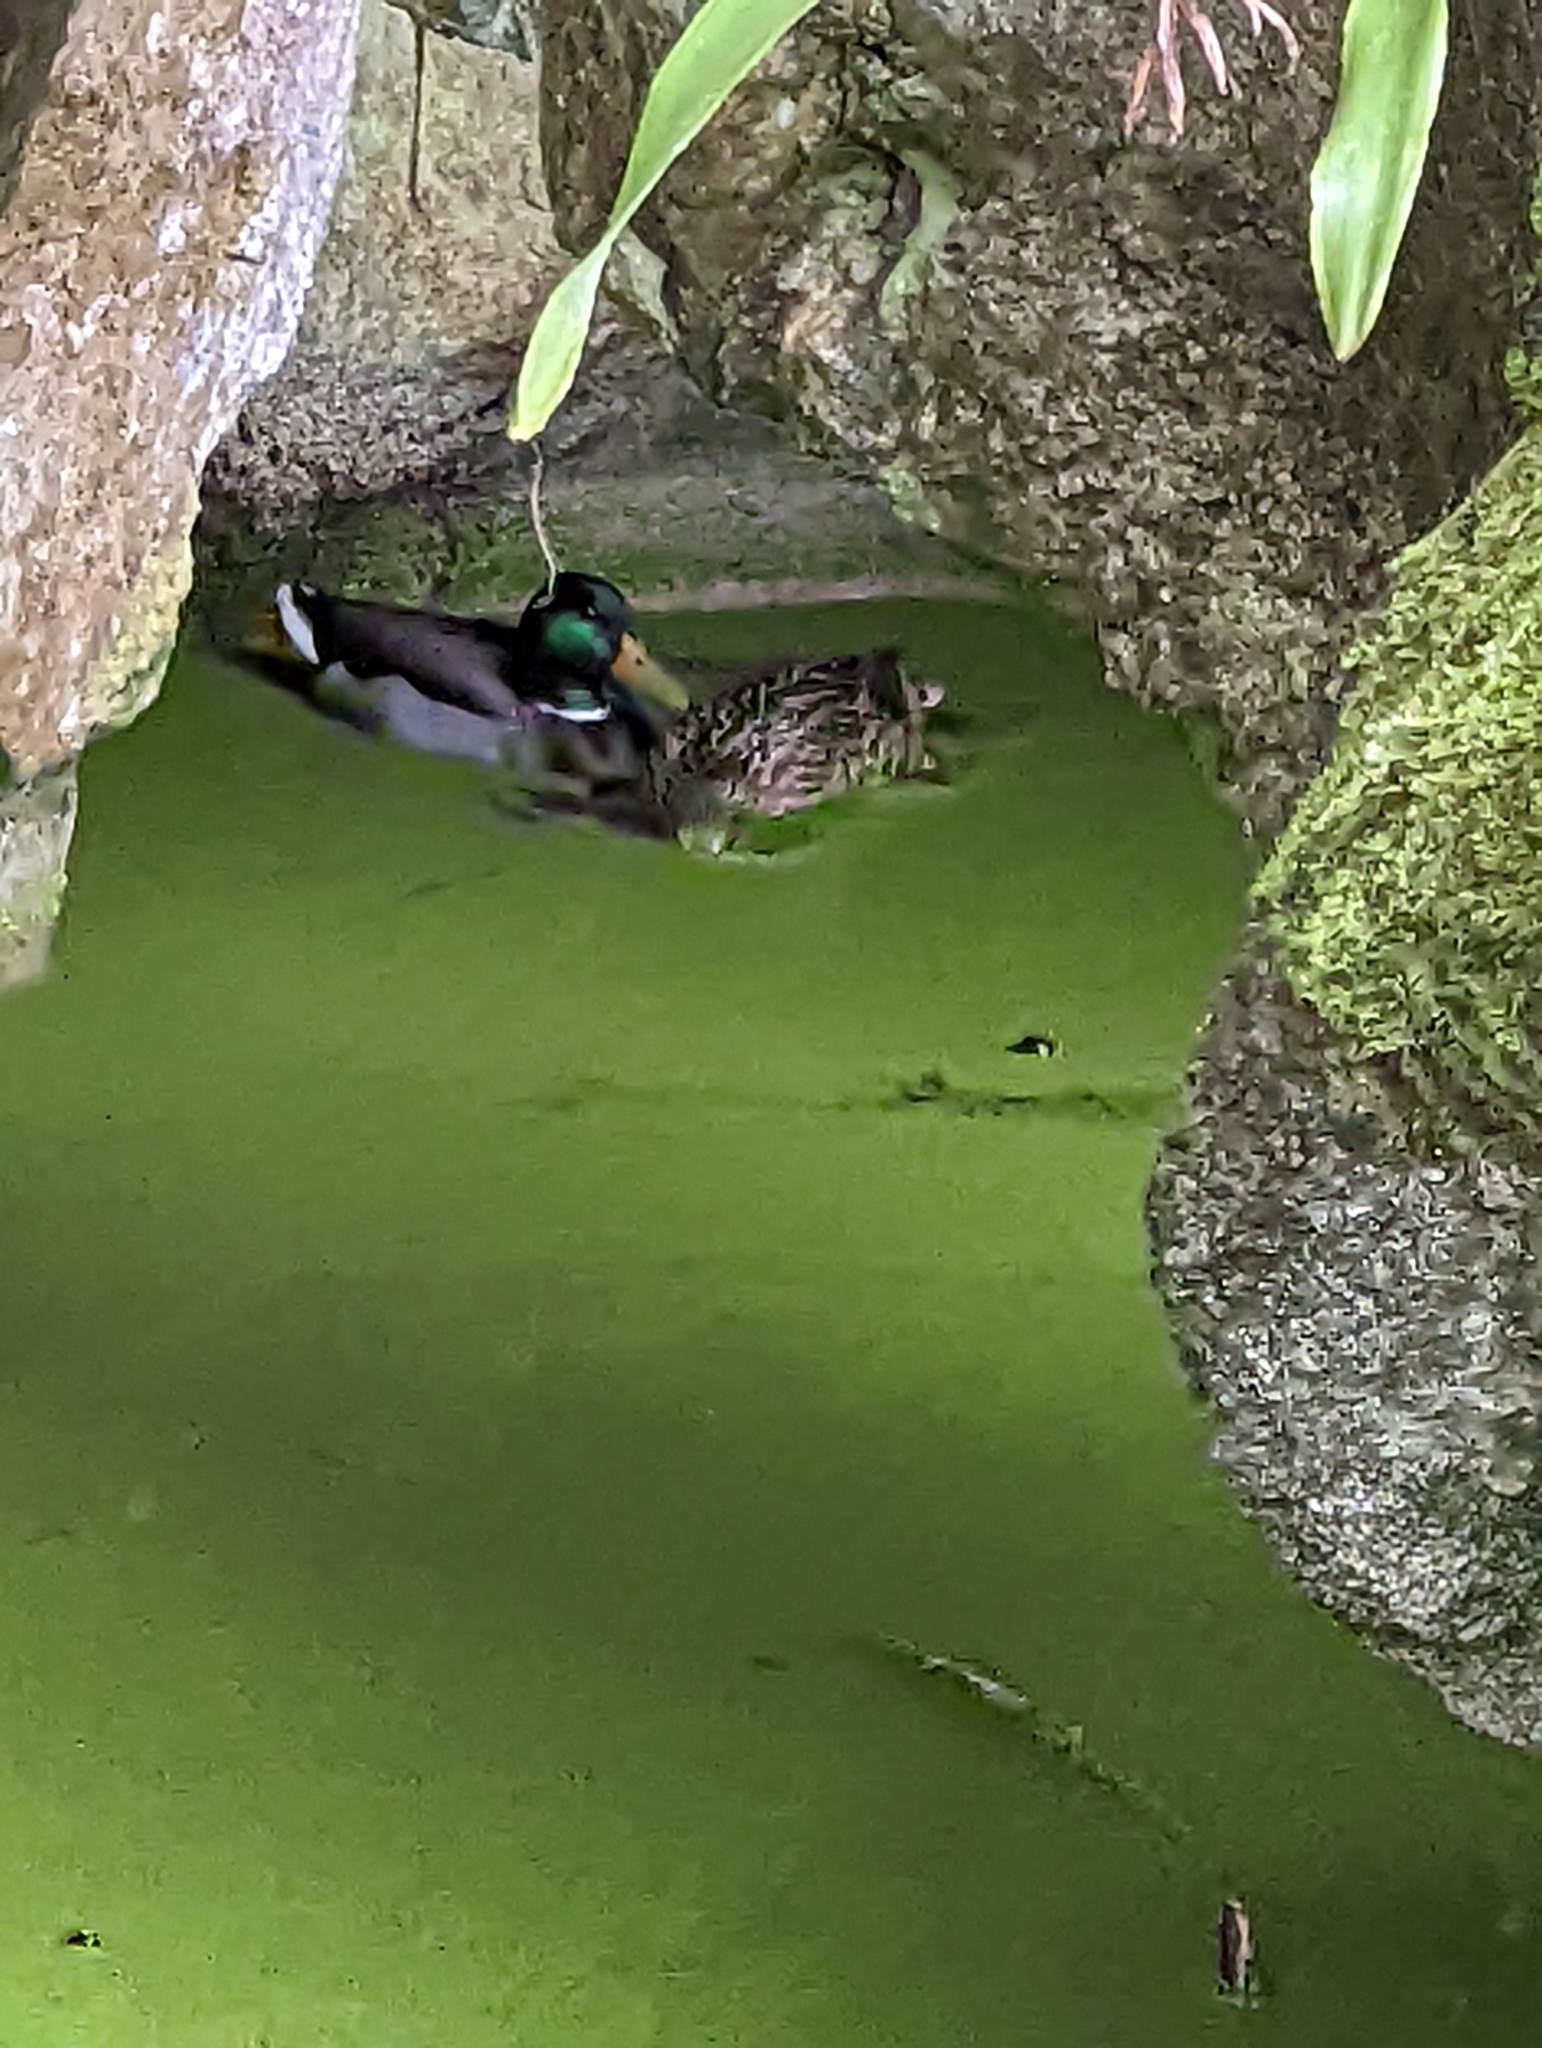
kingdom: Animalia
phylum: Chordata
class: Aves
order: Anseriformes
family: Anatidae
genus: Anas
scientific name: Anas platyrhynchos
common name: Mallard
